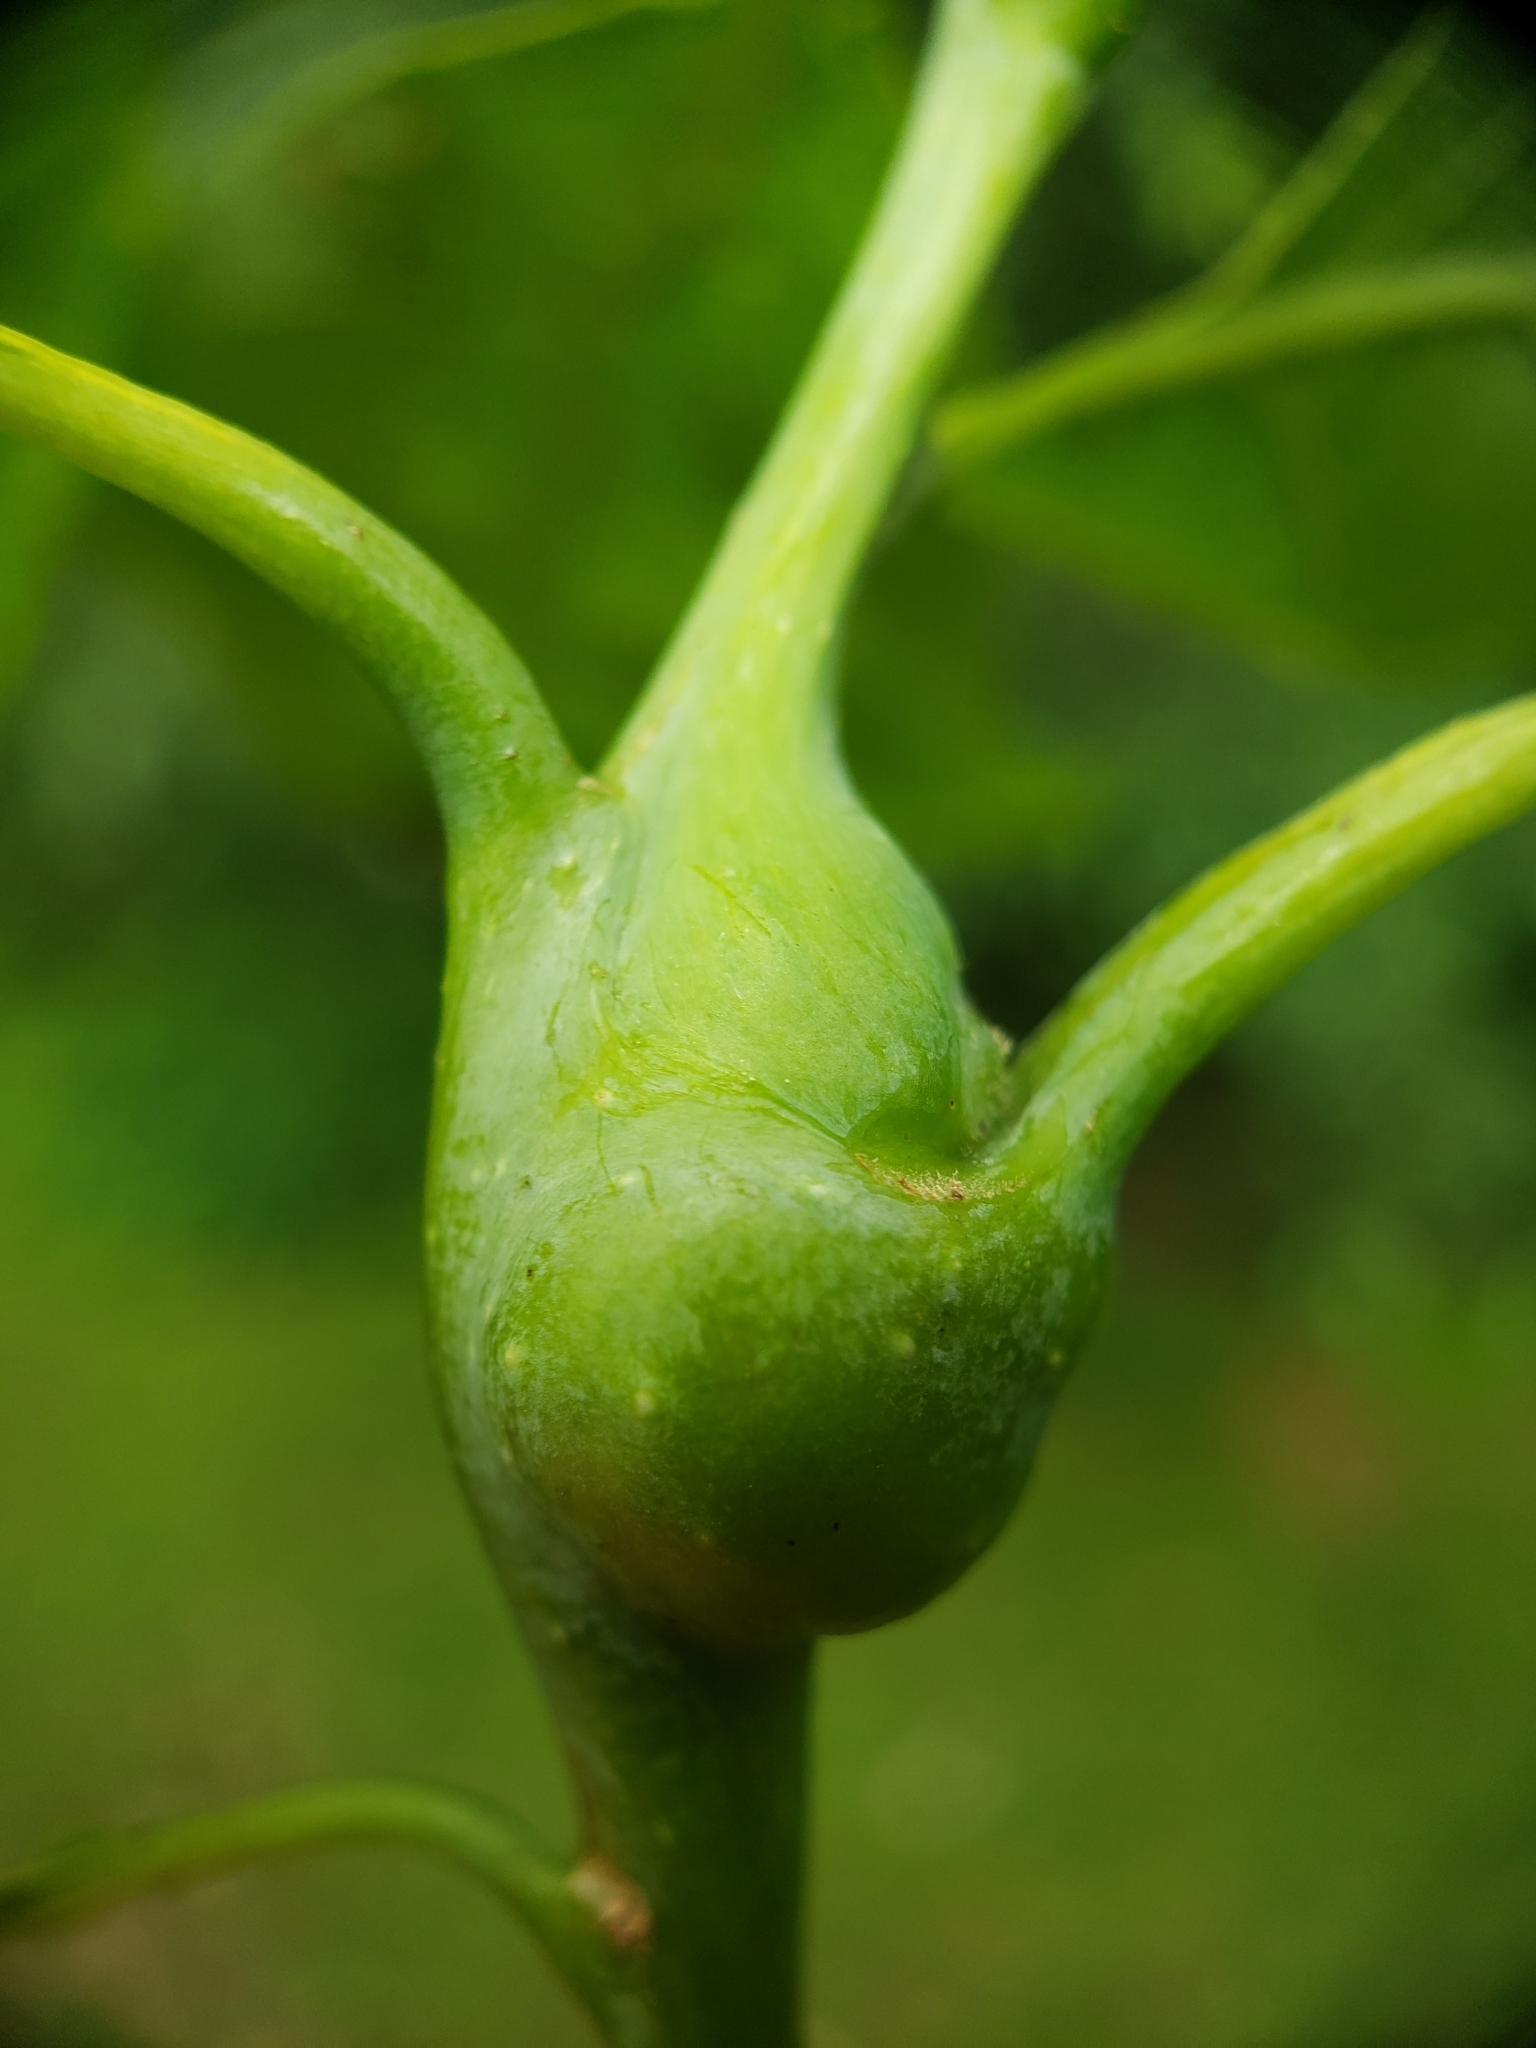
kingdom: Animalia
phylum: Arthropoda
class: Insecta
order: Hymenoptera
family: Cynipidae
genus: Callirhytis
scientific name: Callirhytis clavula
